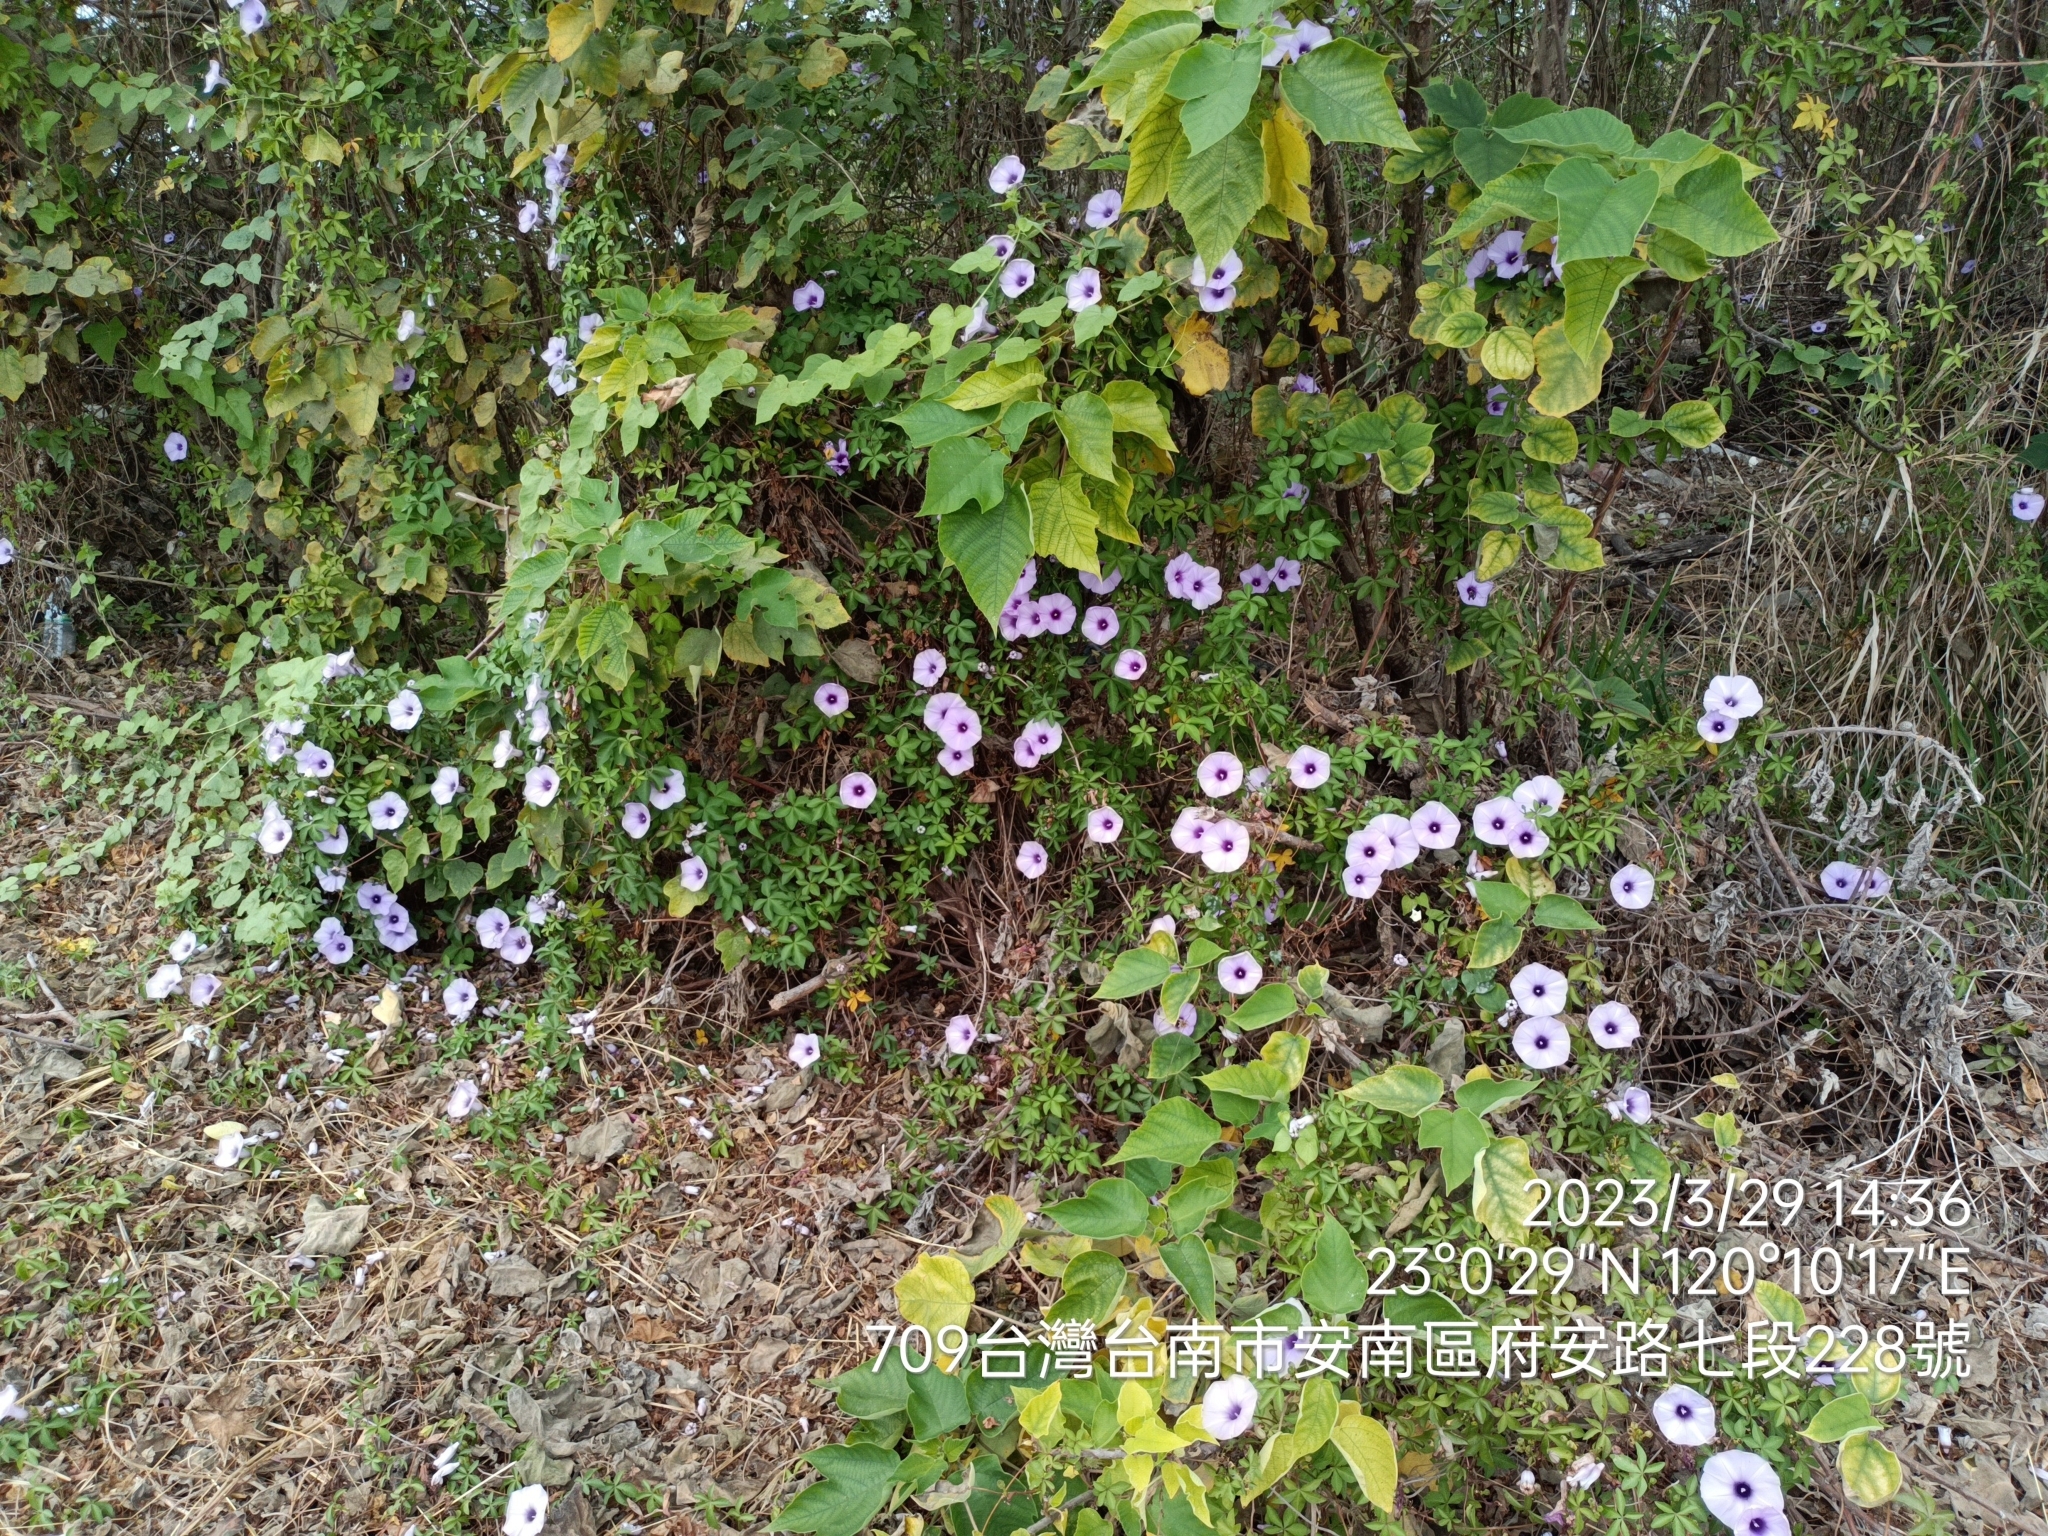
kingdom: Plantae
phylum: Tracheophyta
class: Magnoliopsida
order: Solanales
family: Convolvulaceae
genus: Ipomoea
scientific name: Ipomoea cairica
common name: Mile a minute vine
